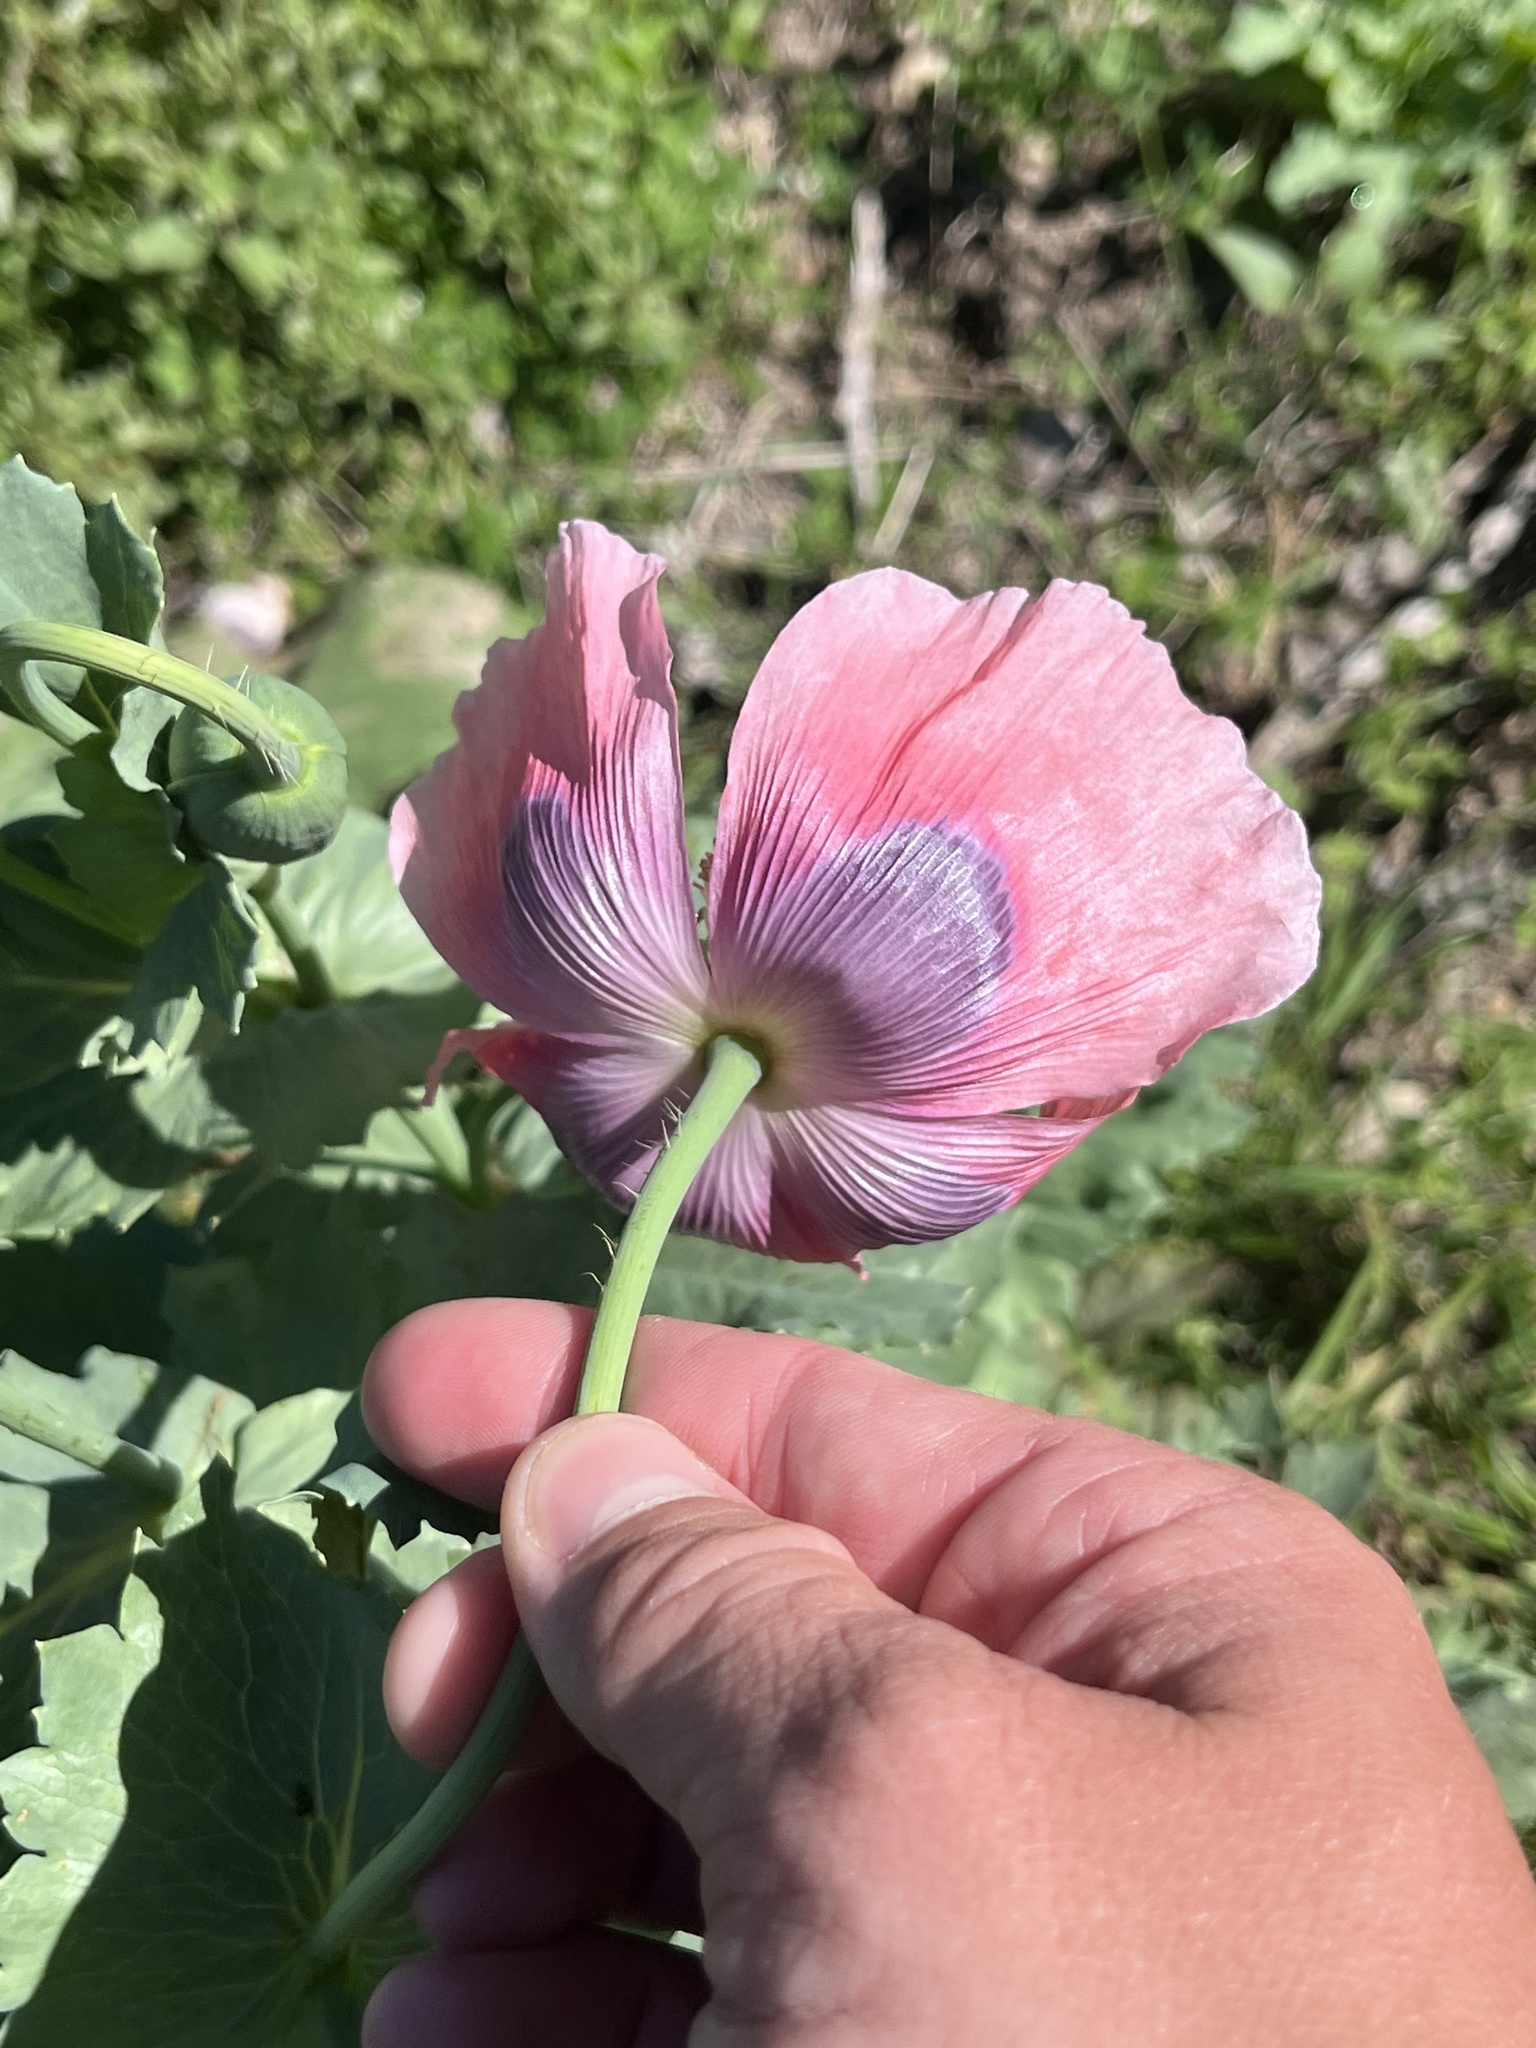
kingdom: Plantae
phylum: Tracheophyta
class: Magnoliopsida
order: Ranunculales
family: Papaveraceae
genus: Papaver
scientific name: Papaver somniferum
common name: Opium poppy
